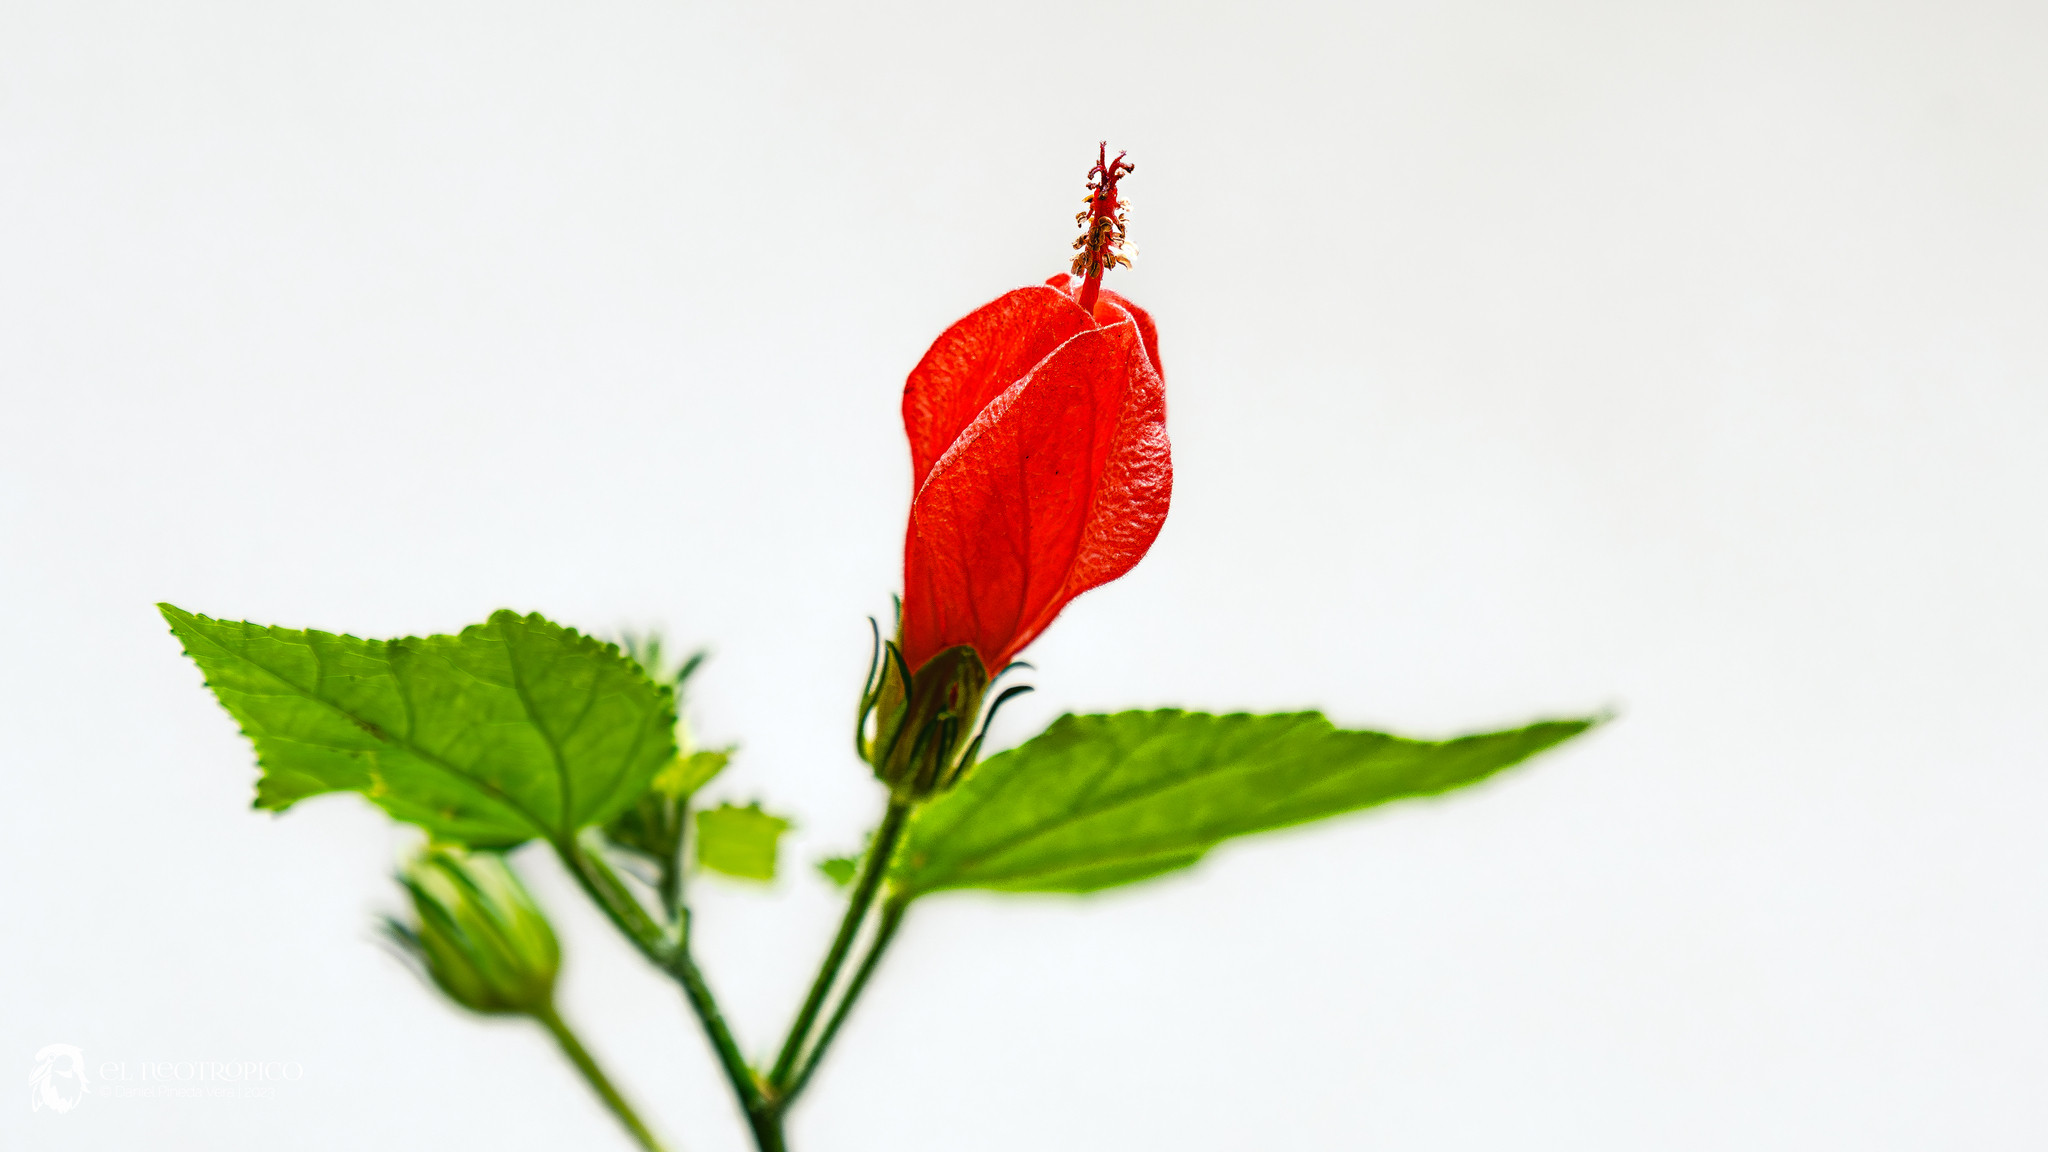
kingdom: Plantae
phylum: Tracheophyta
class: Magnoliopsida
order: Malvales
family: Malvaceae
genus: Malvaviscus
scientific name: Malvaviscus arboreus
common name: Wax mallow
